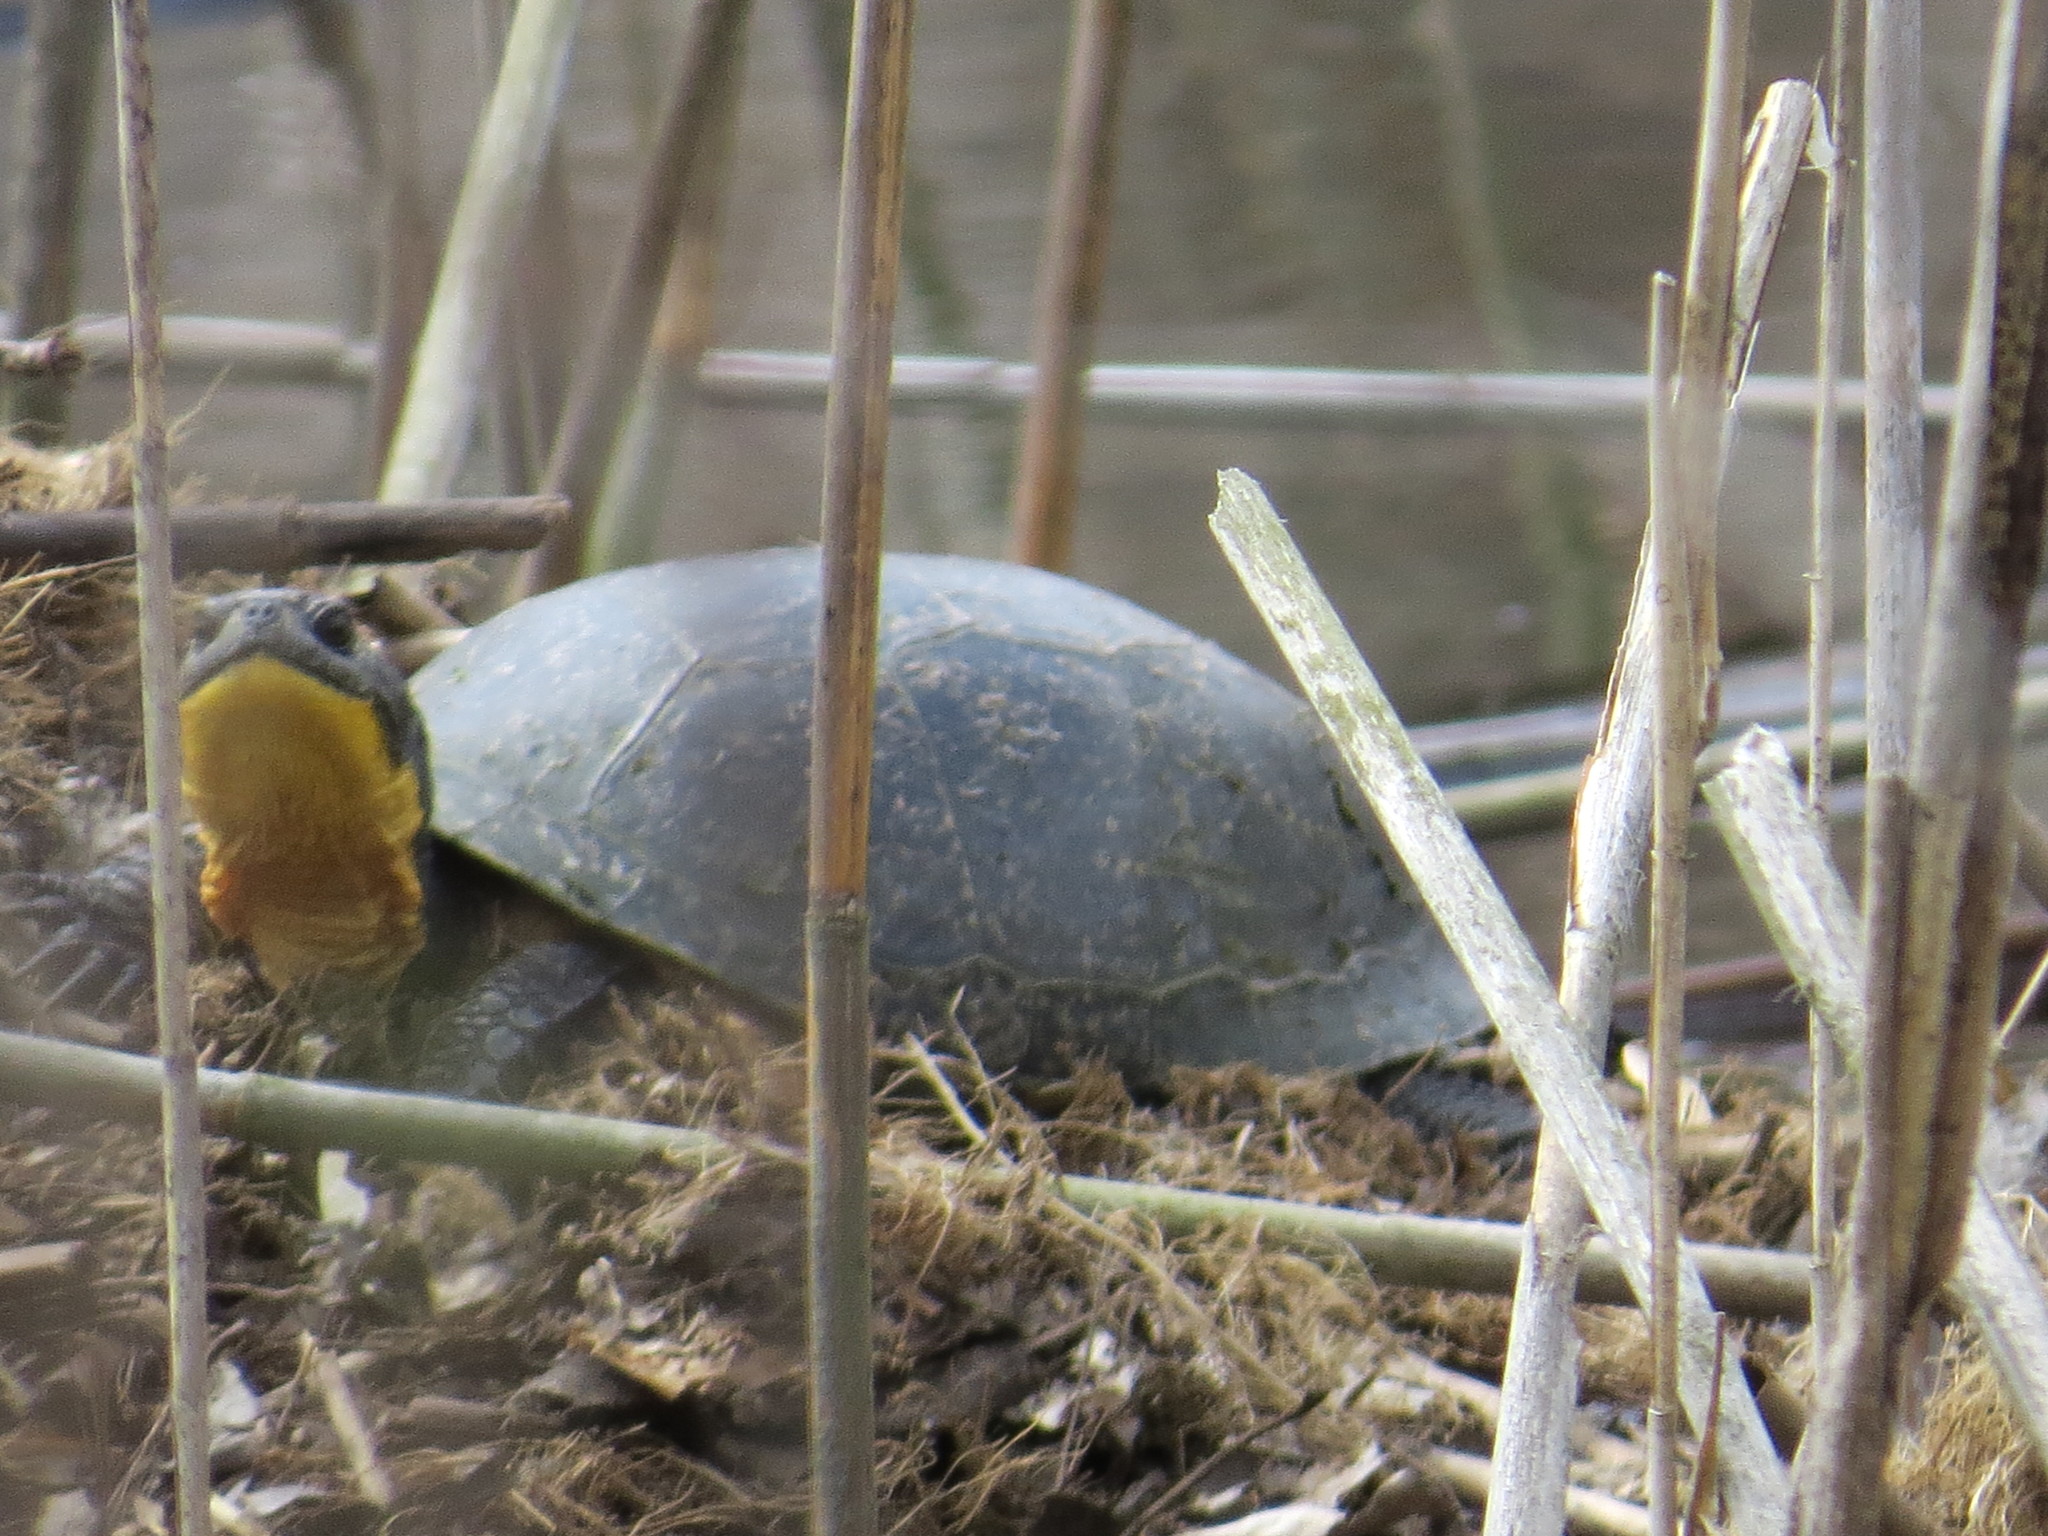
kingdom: Animalia
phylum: Chordata
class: Testudines
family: Emydidae
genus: Emys
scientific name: Emys blandingii
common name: Blanding's turtle
